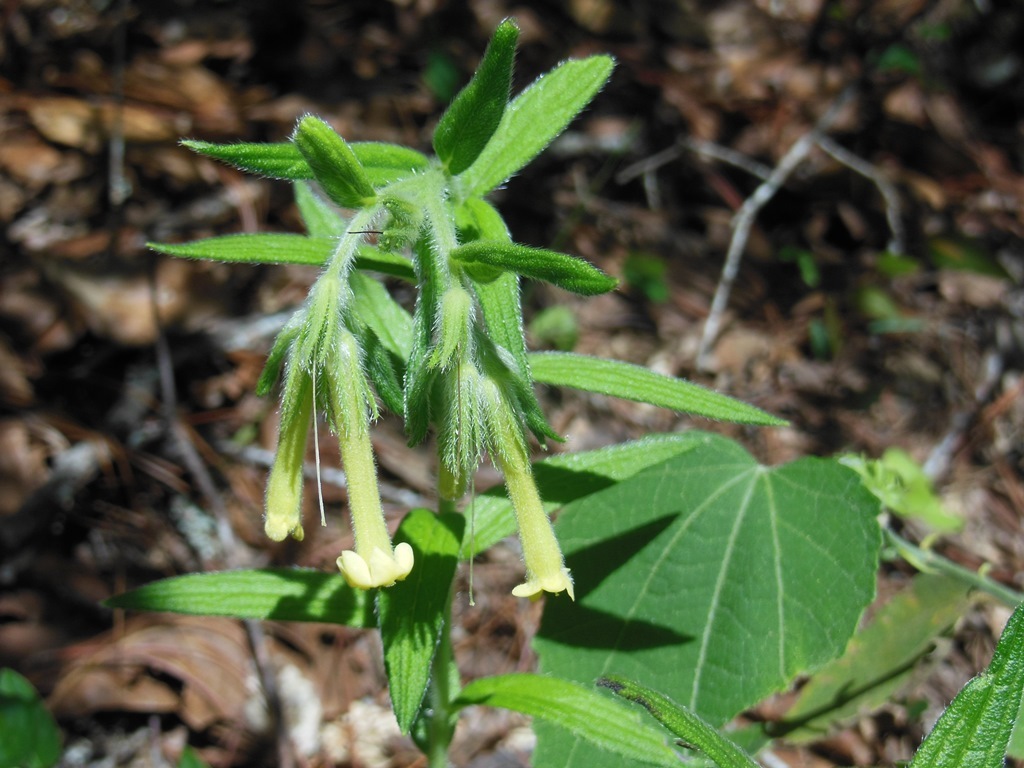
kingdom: Plantae
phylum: Tracheophyta
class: Magnoliopsida
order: Boraginales
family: Boraginaceae
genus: Lithospermum
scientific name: Lithospermum guatemalense
